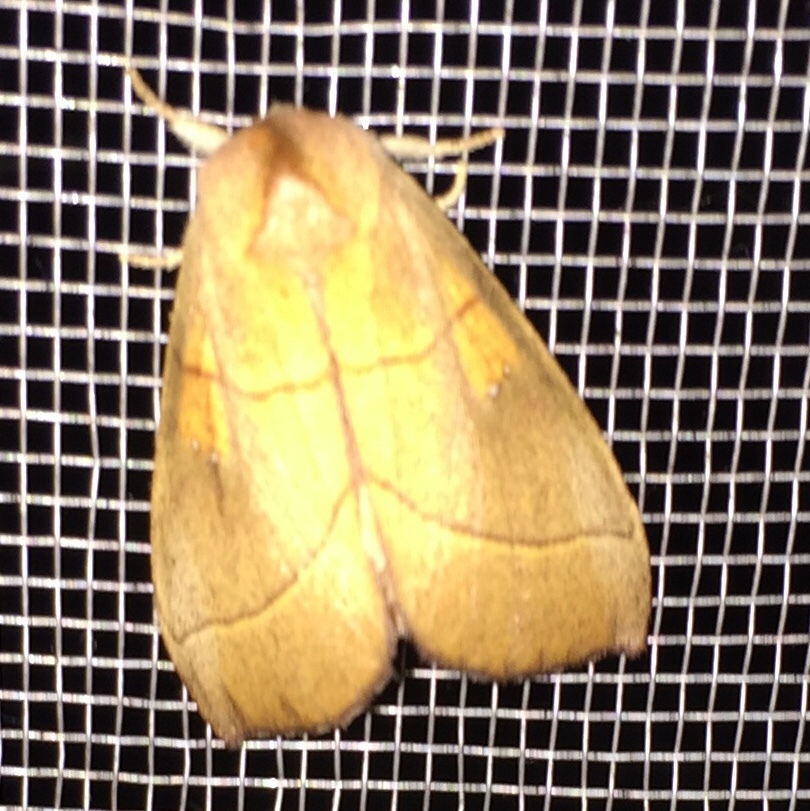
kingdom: Animalia
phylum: Arthropoda
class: Insecta
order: Lepidoptera
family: Notodontidae
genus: Nadata
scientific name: Nadata gibbosa
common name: White-dotted prominent
